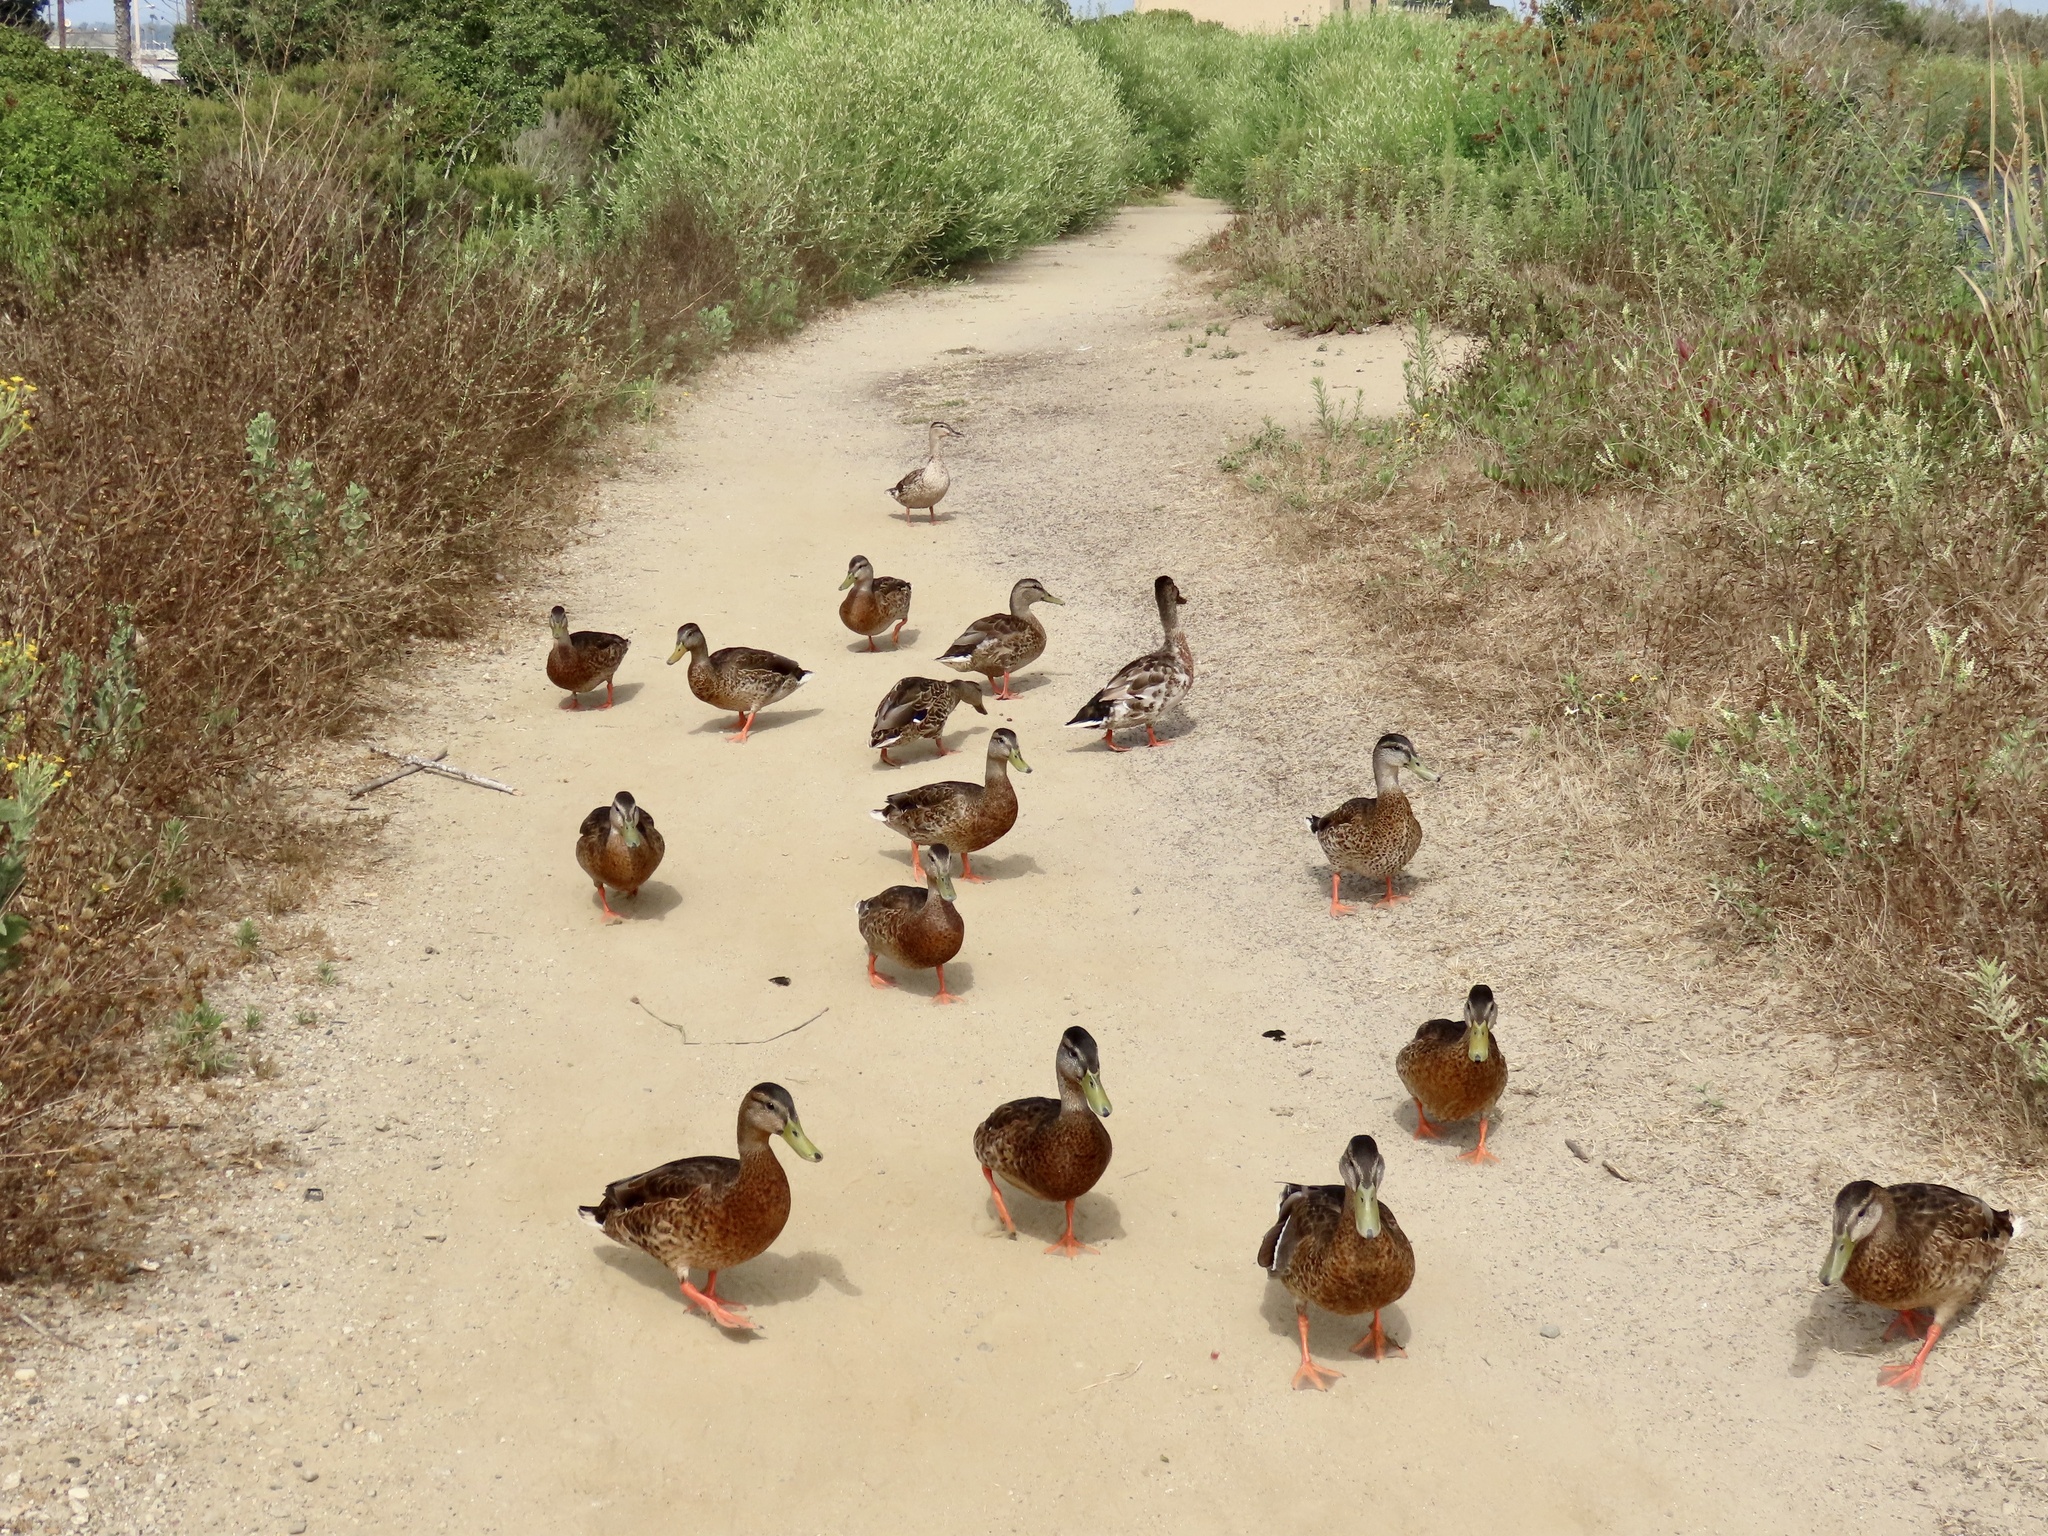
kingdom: Animalia
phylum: Chordata
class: Aves
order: Anseriformes
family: Anatidae
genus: Anas
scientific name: Anas platyrhynchos
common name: Mallard
